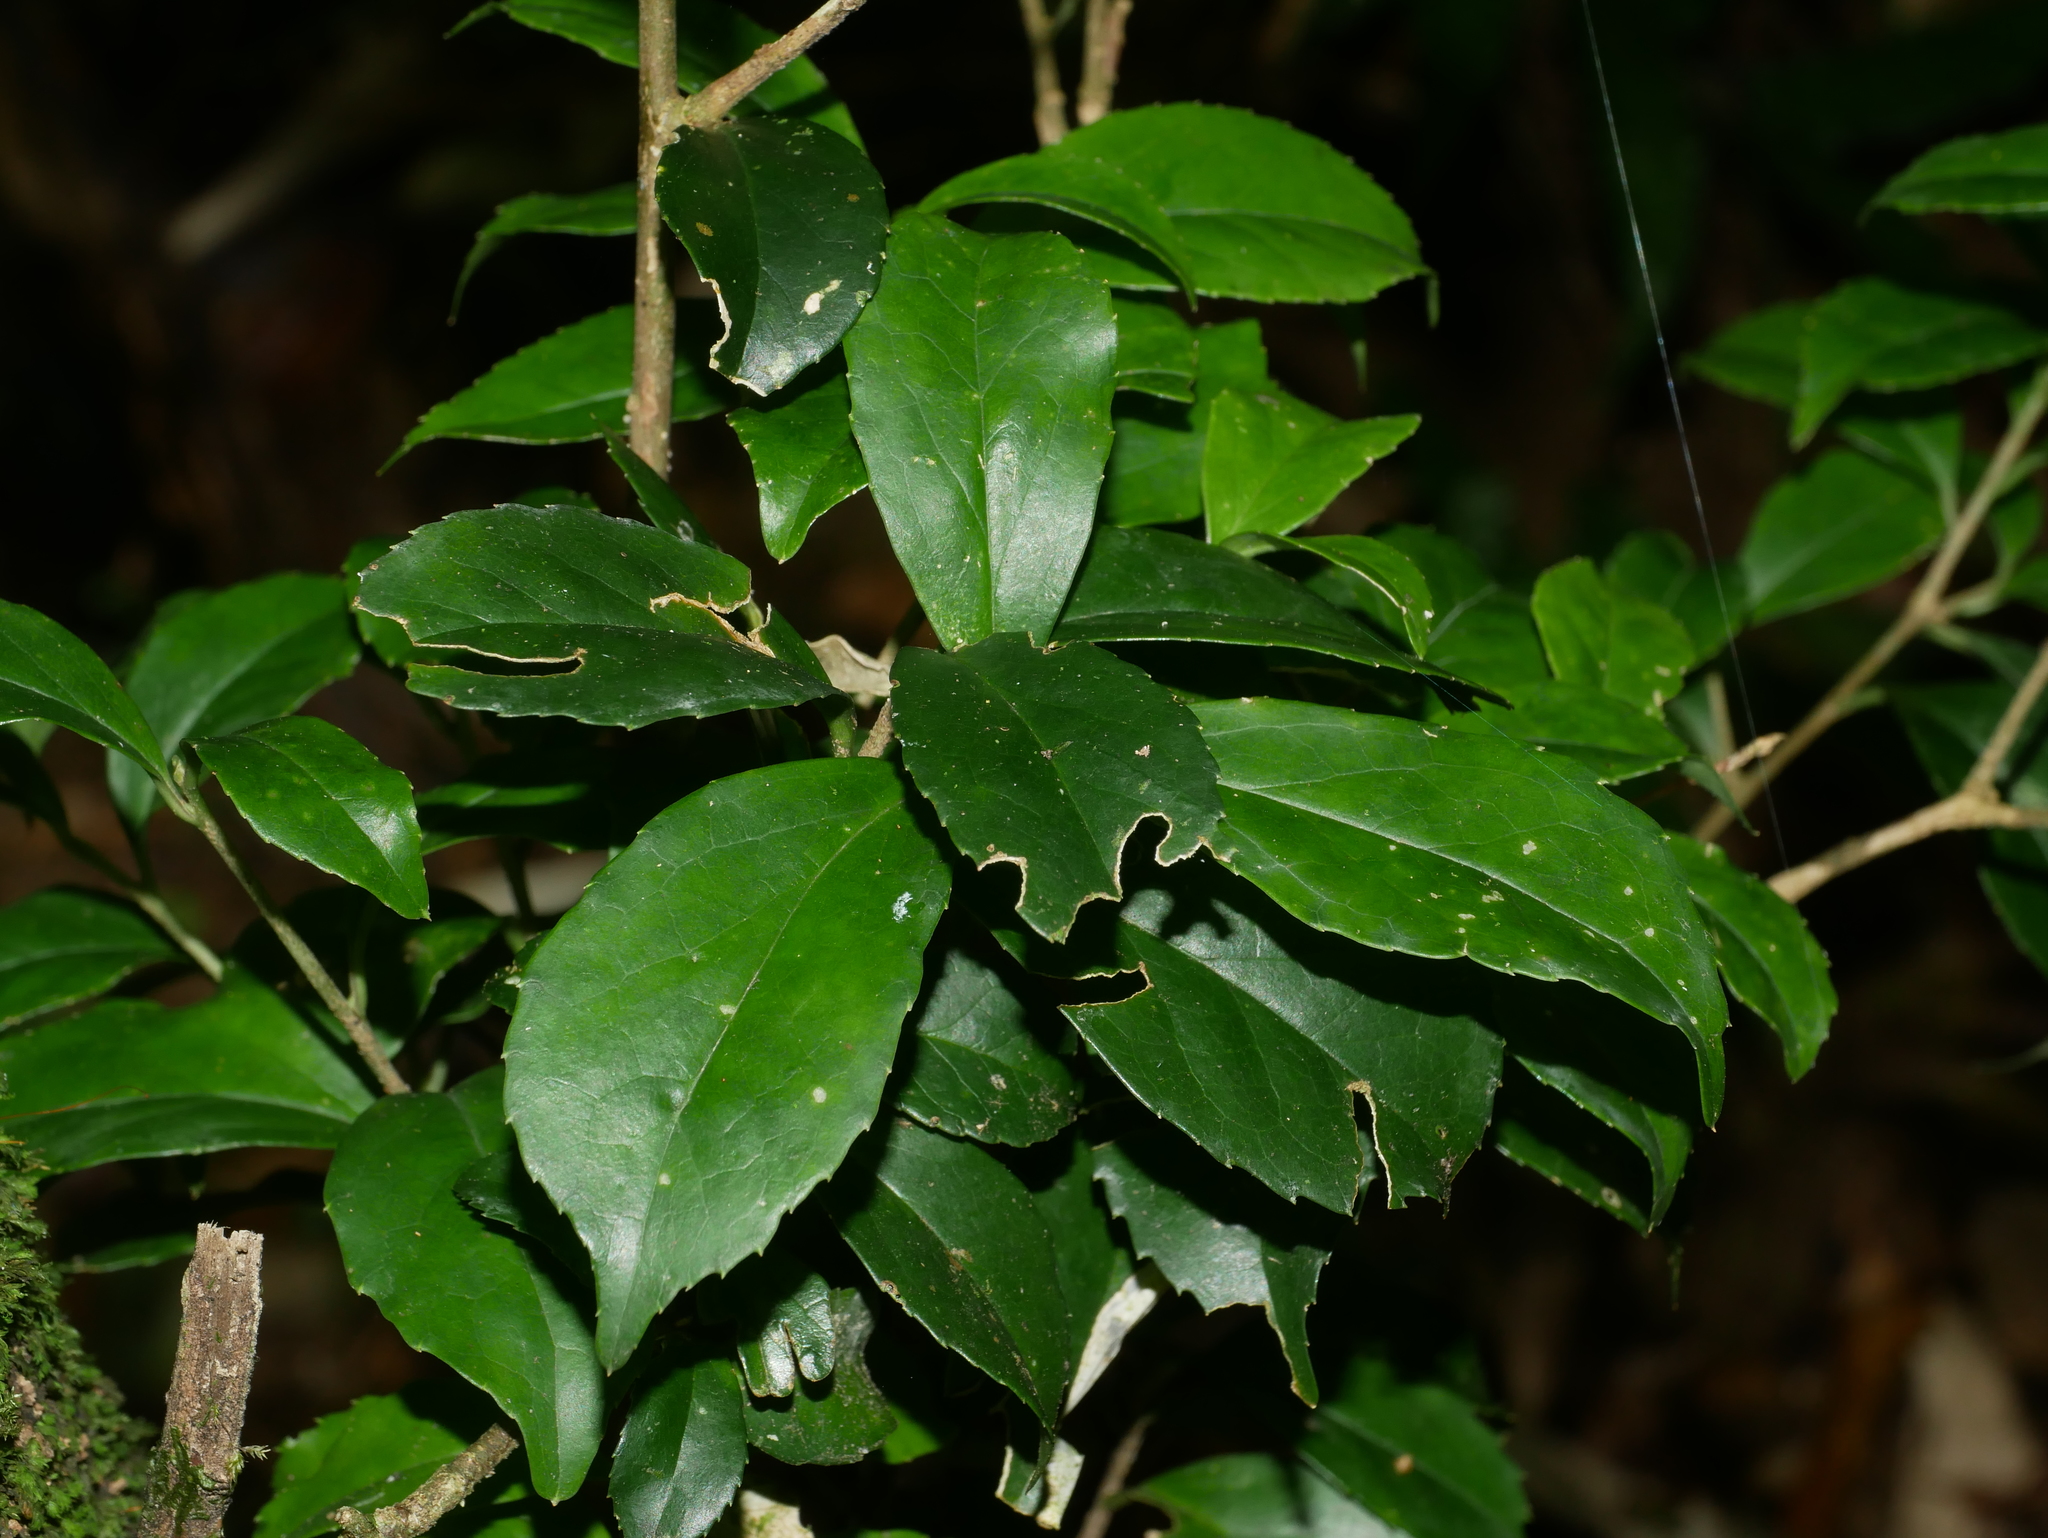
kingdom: Plantae
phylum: Tracheophyta
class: Magnoliopsida
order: Ericales
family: Symplocaceae
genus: Symplocos
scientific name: Symplocos sumuntia
